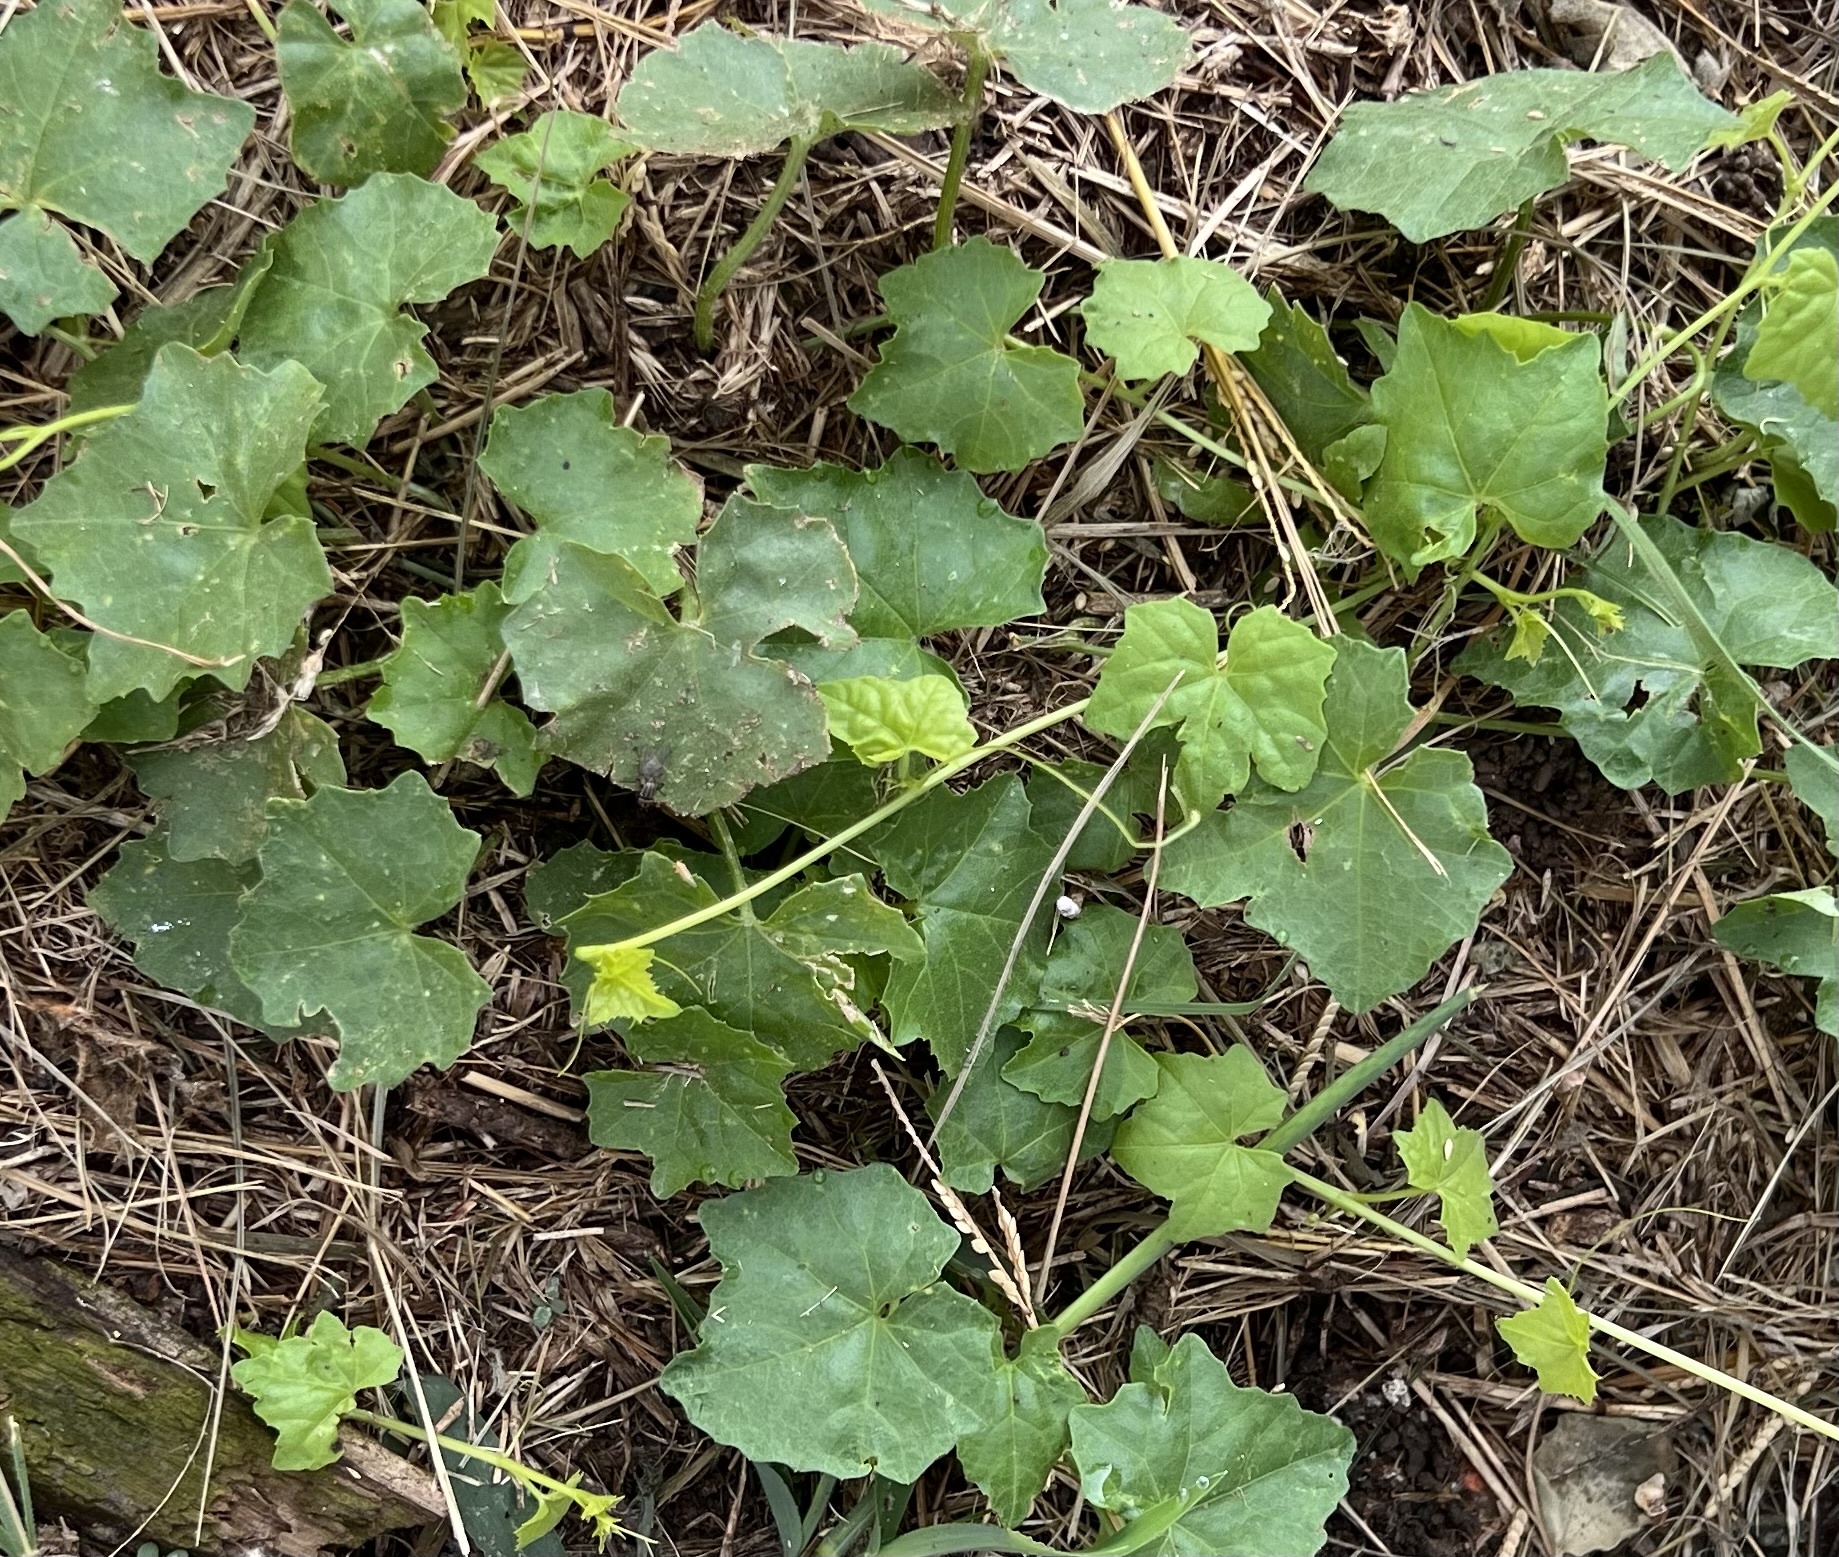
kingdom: Plantae
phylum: Tracheophyta
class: Magnoliopsida
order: Cucurbitales
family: Cucurbitaceae
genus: Melothria
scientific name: Melothria pendula
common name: Creeping-cucumber
